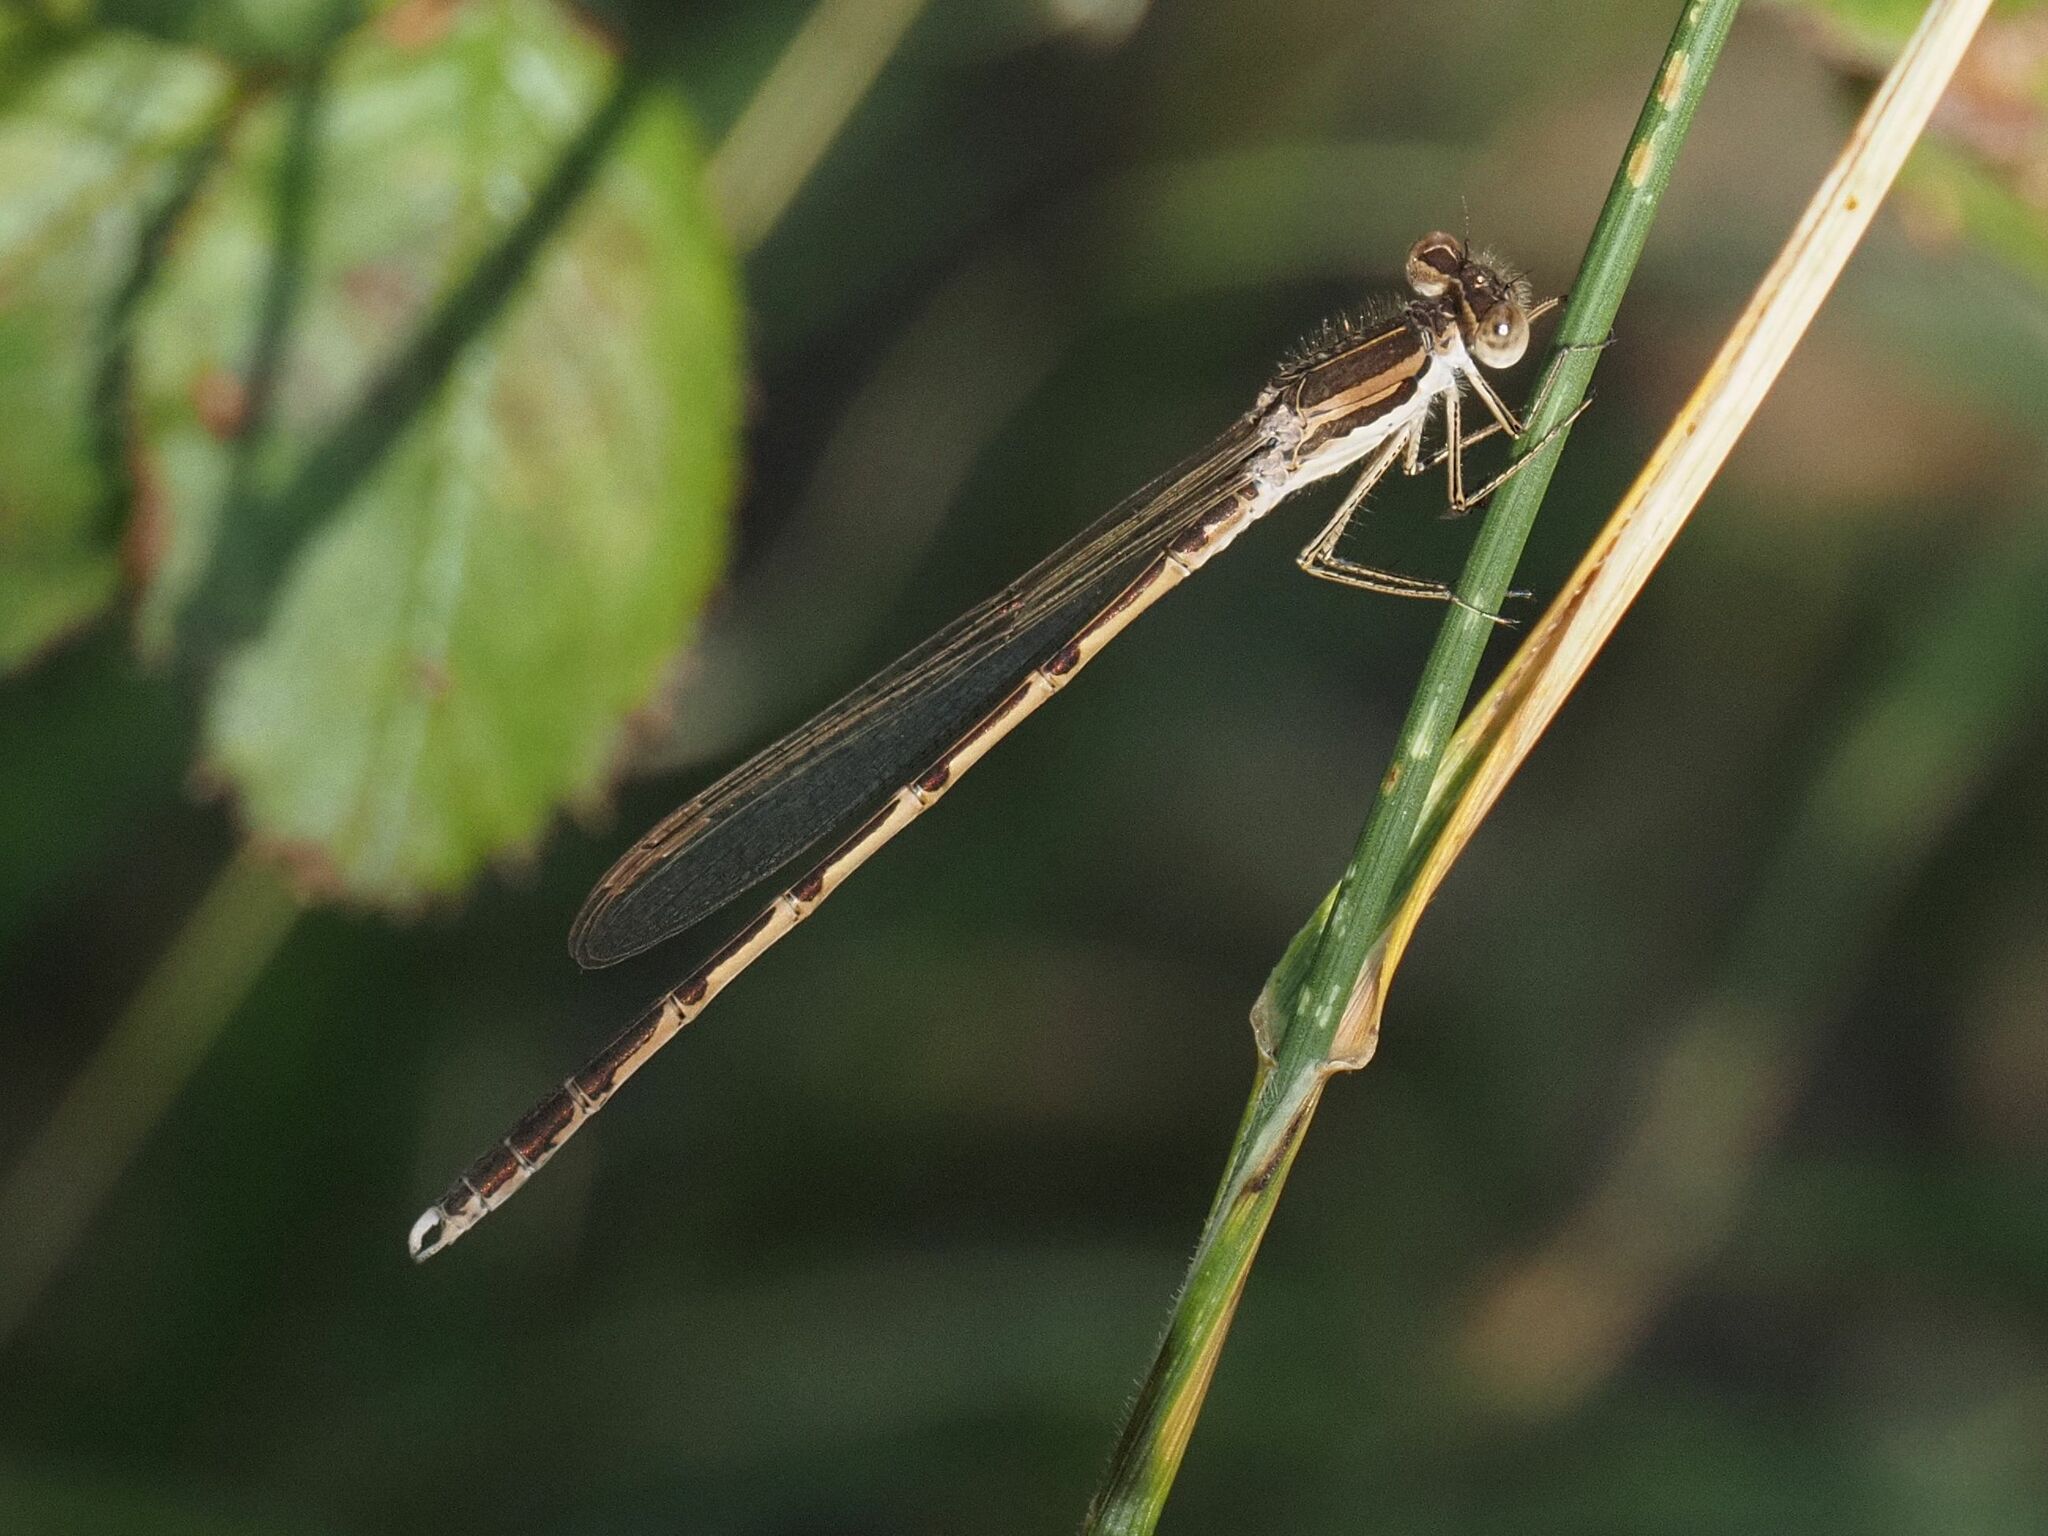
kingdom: Animalia
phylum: Arthropoda
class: Insecta
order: Odonata
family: Lestidae
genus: Sympecma
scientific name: Sympecma fusca
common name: Common winter damsel
